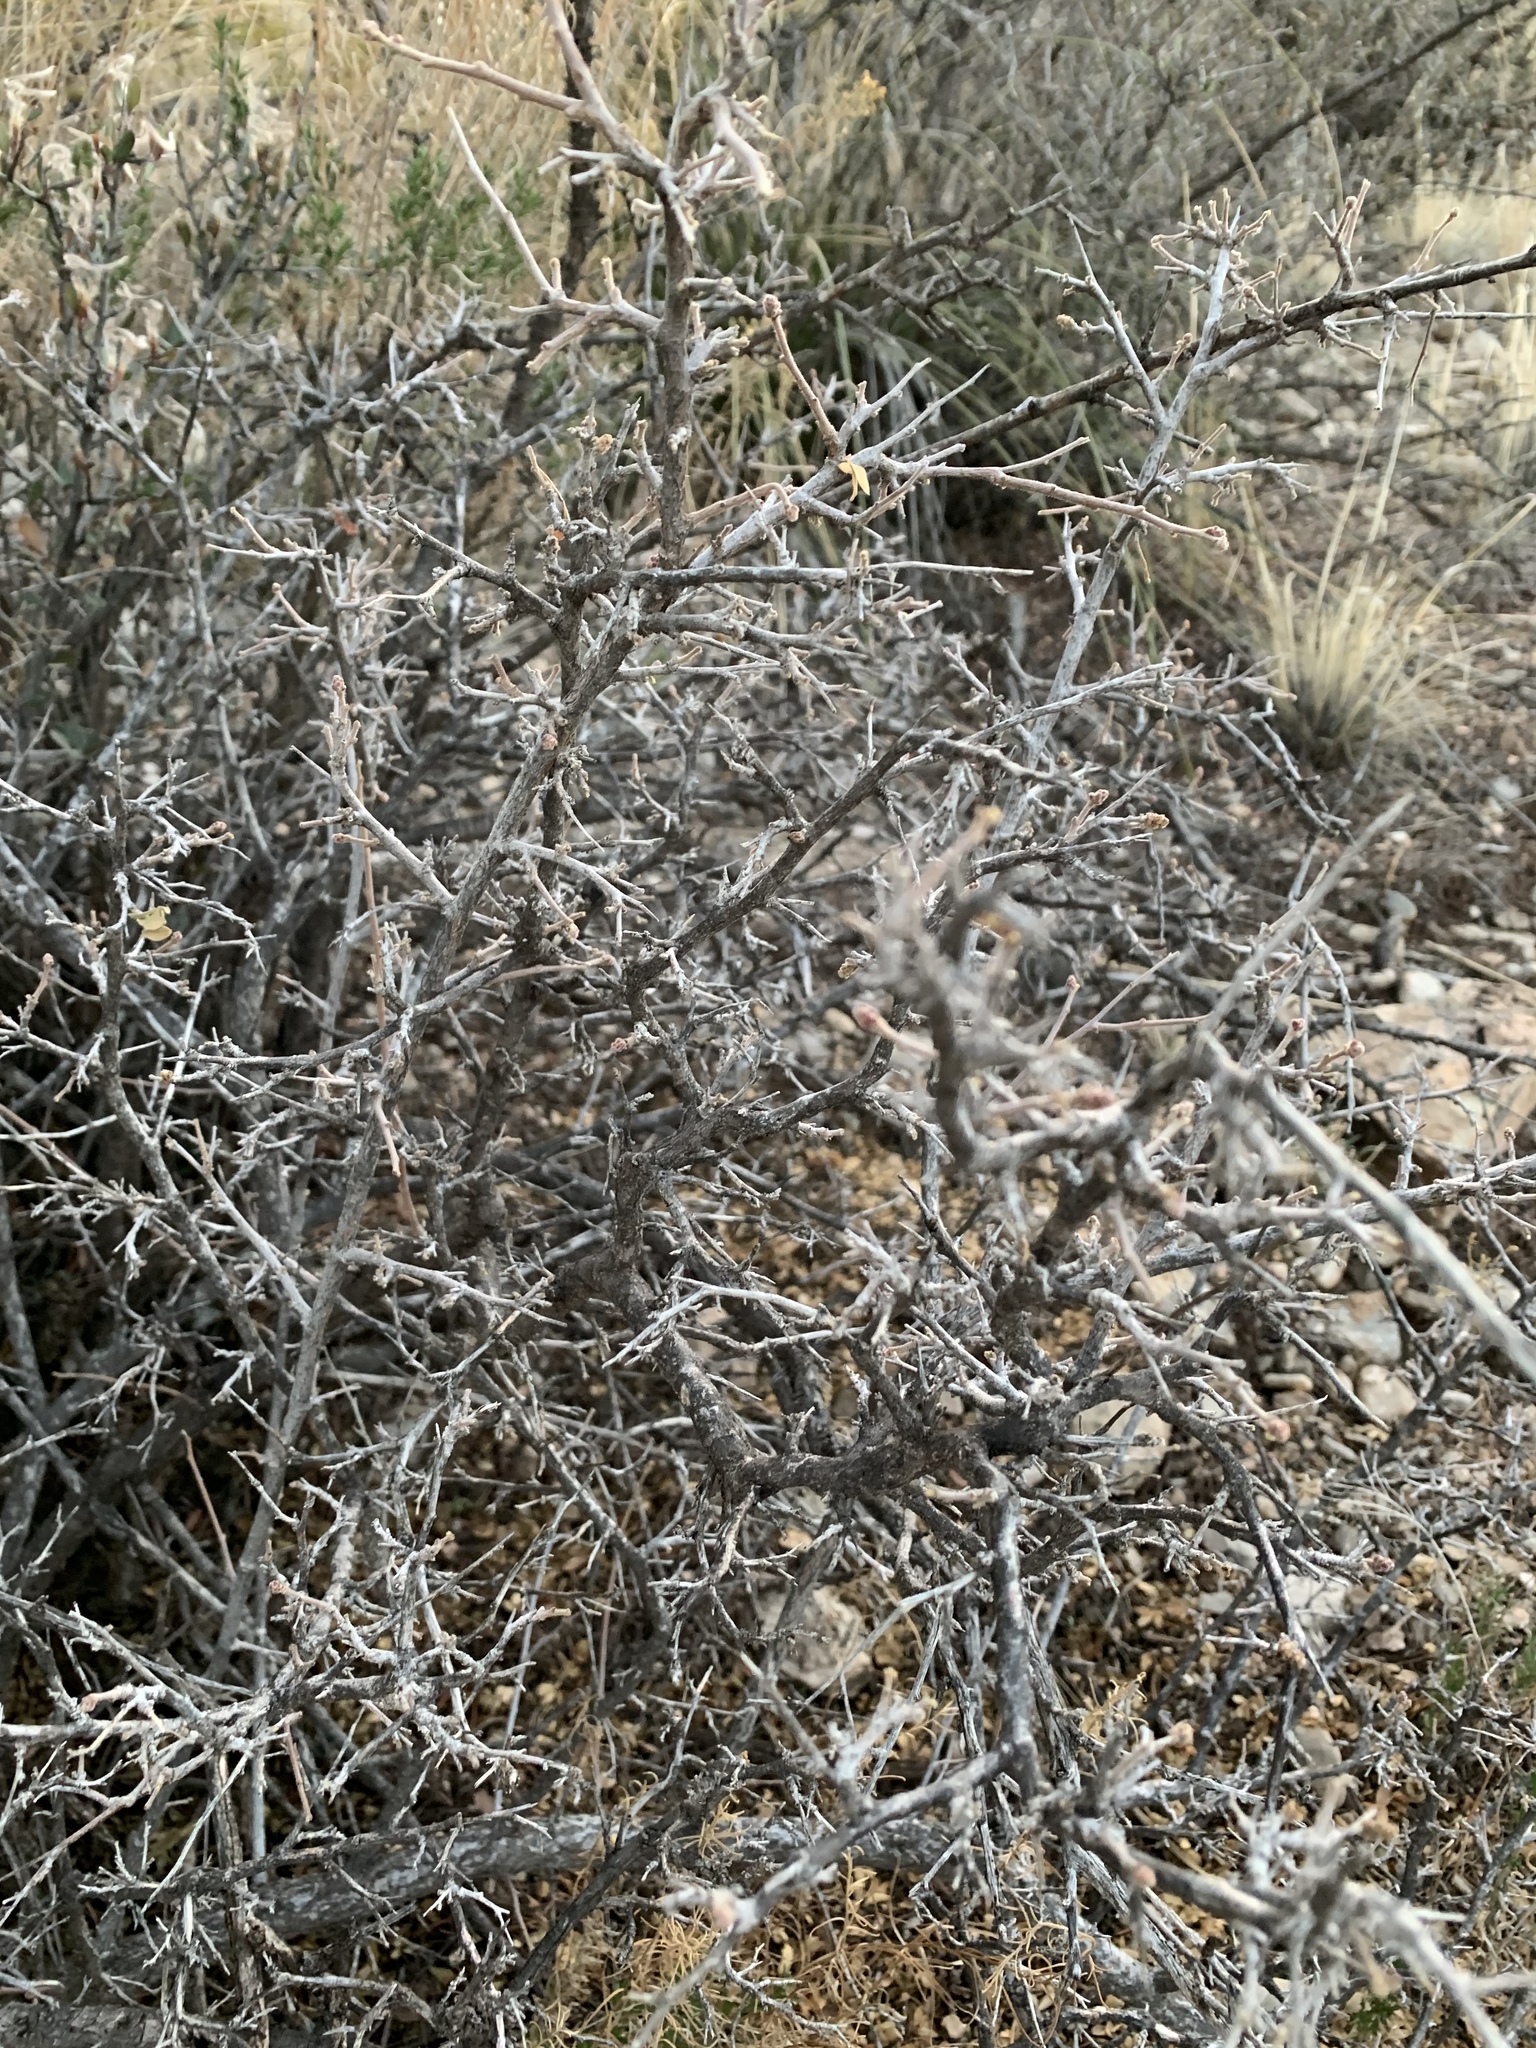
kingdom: Plantae
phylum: Tracheophyta
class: Magnoliopsida
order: Sapindales
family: Anacardiaceae
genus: Rhus
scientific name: Rhus microphylla
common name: Desert sumac
